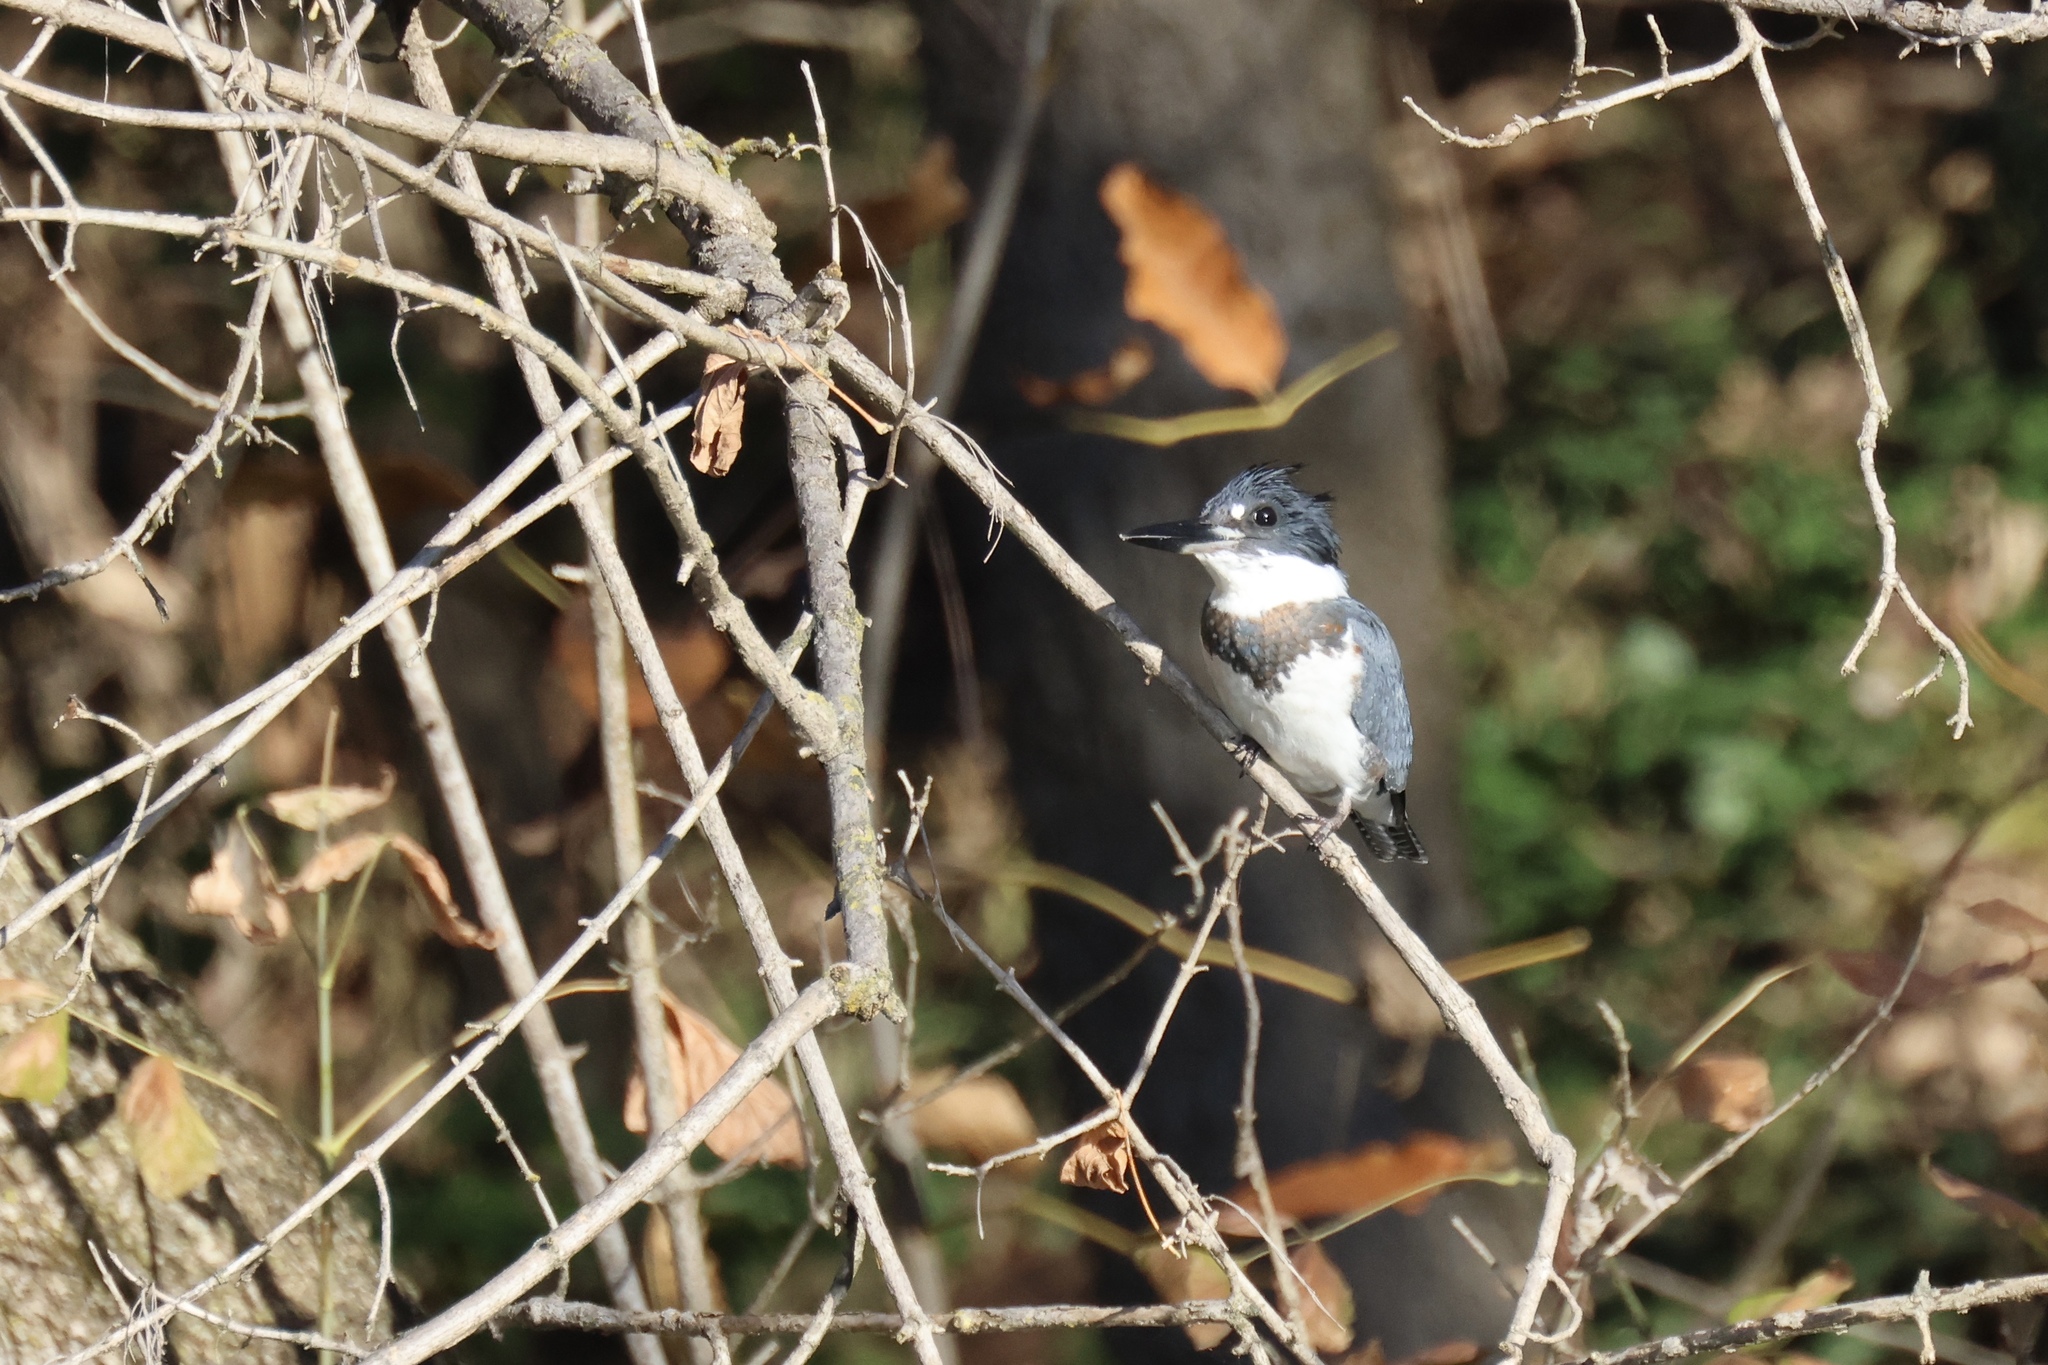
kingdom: Animalia
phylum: Chordata
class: Aves
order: Coraciiformes
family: Alcedinidae
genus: Megaceryle
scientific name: Megaceryle alcyon
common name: Belted kingfisher
